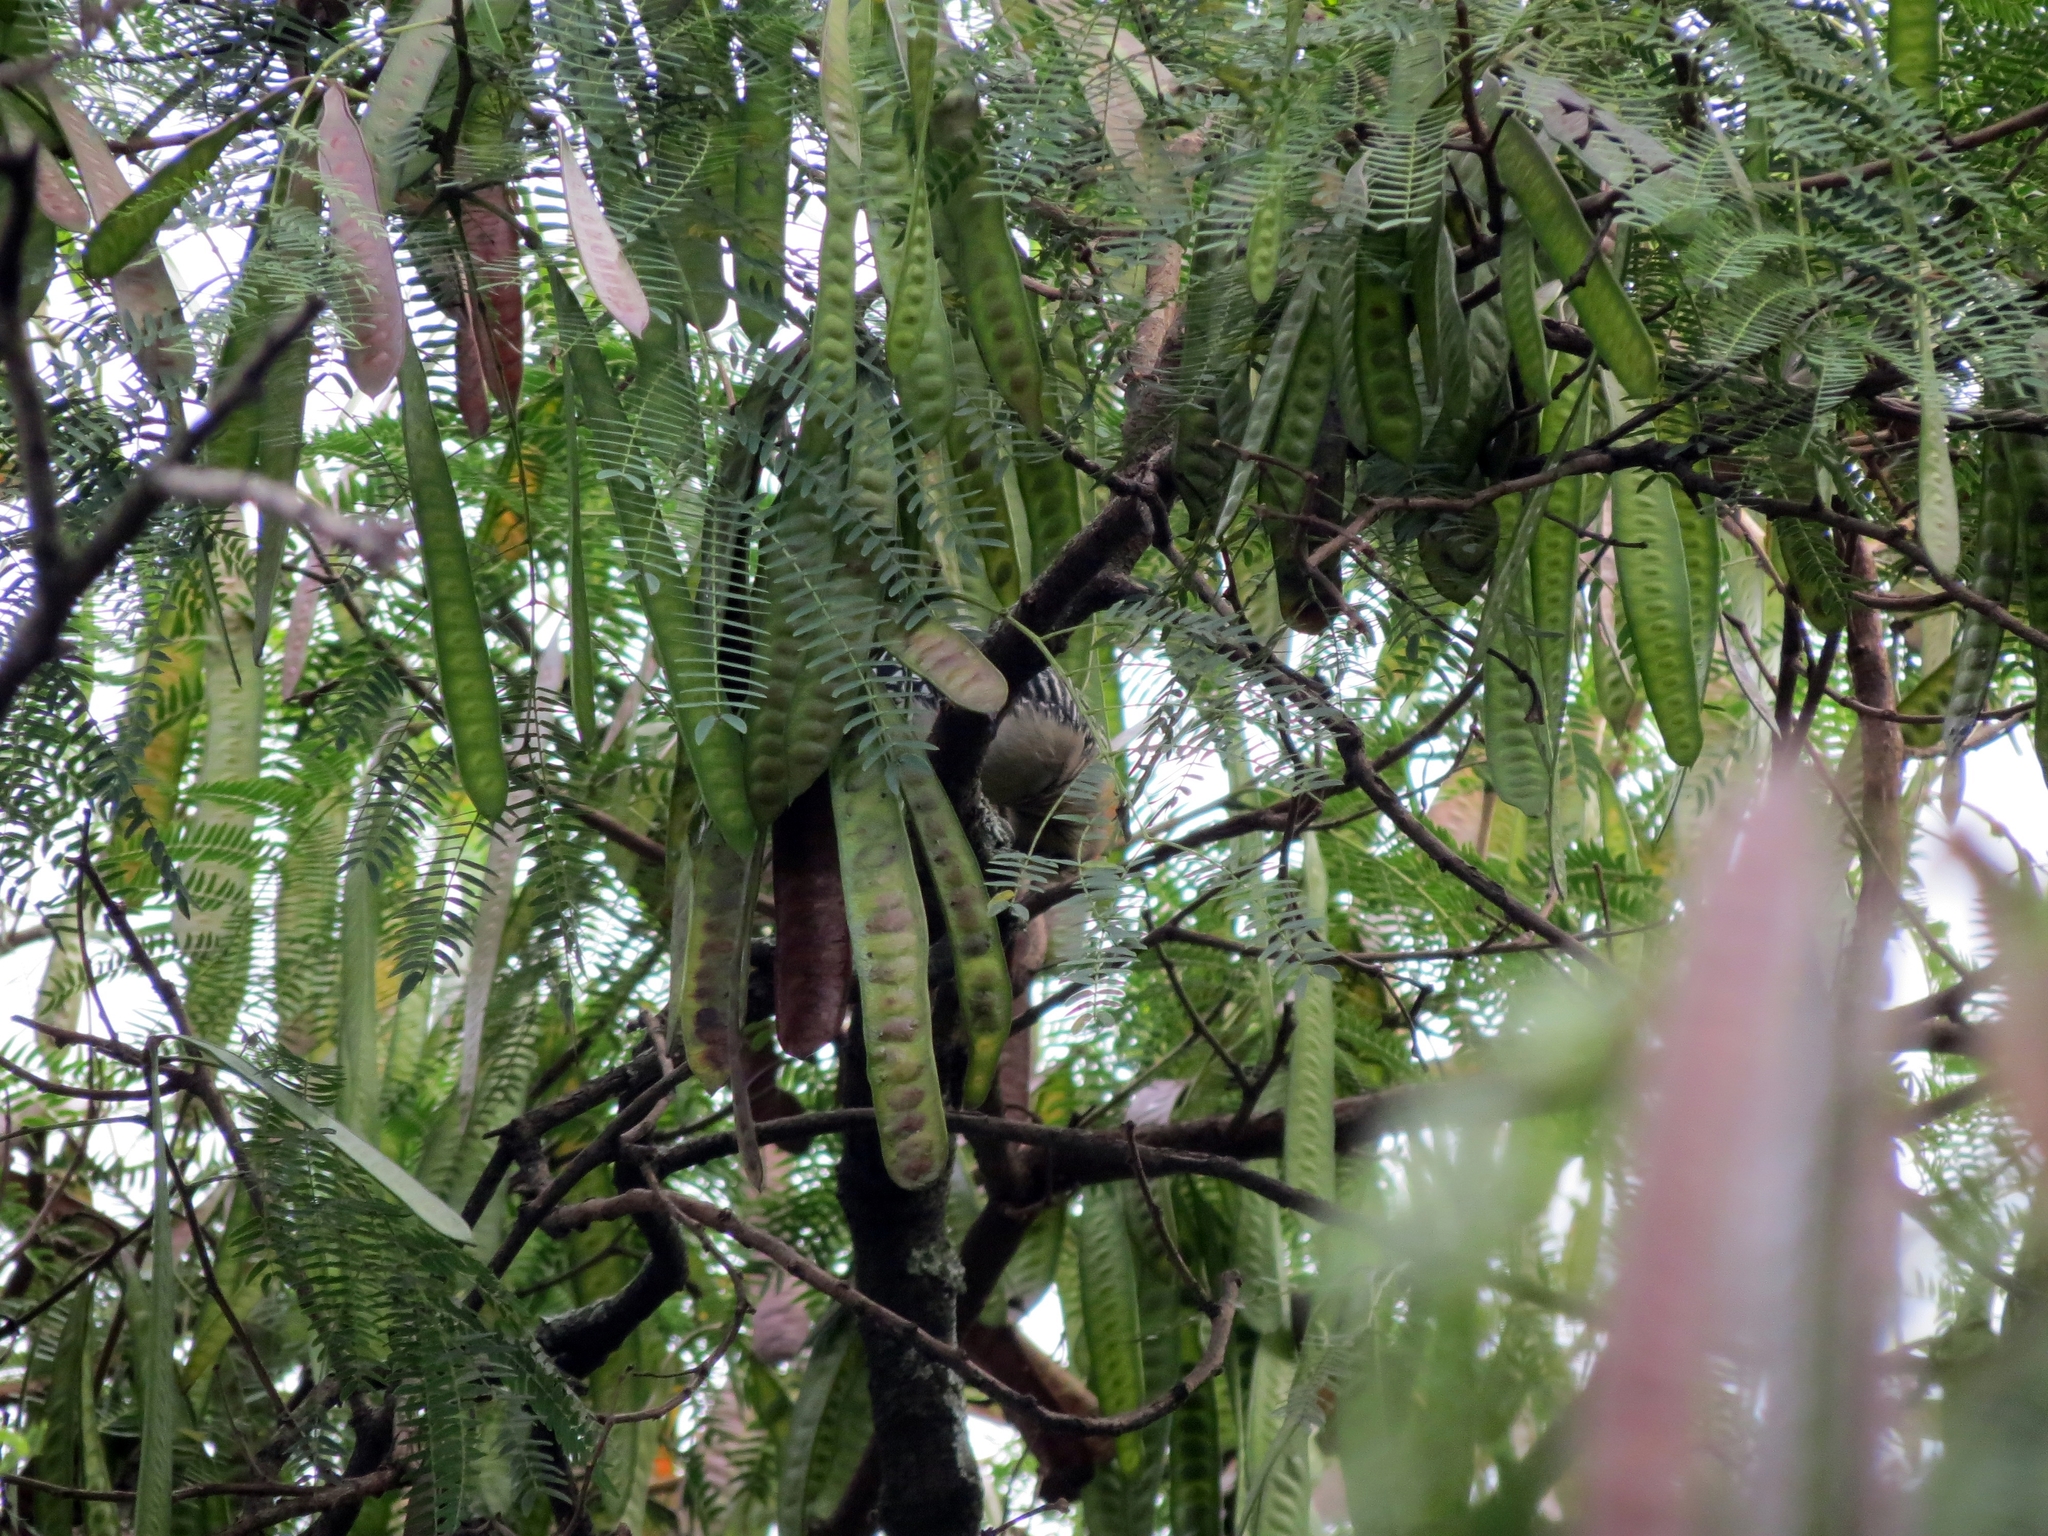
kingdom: Animalia
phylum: Chordata
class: Aves
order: Piciformes
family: Picidae
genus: Melanerpes
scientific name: Melanerpes rubricapillus
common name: Red-crowned woodpecker
